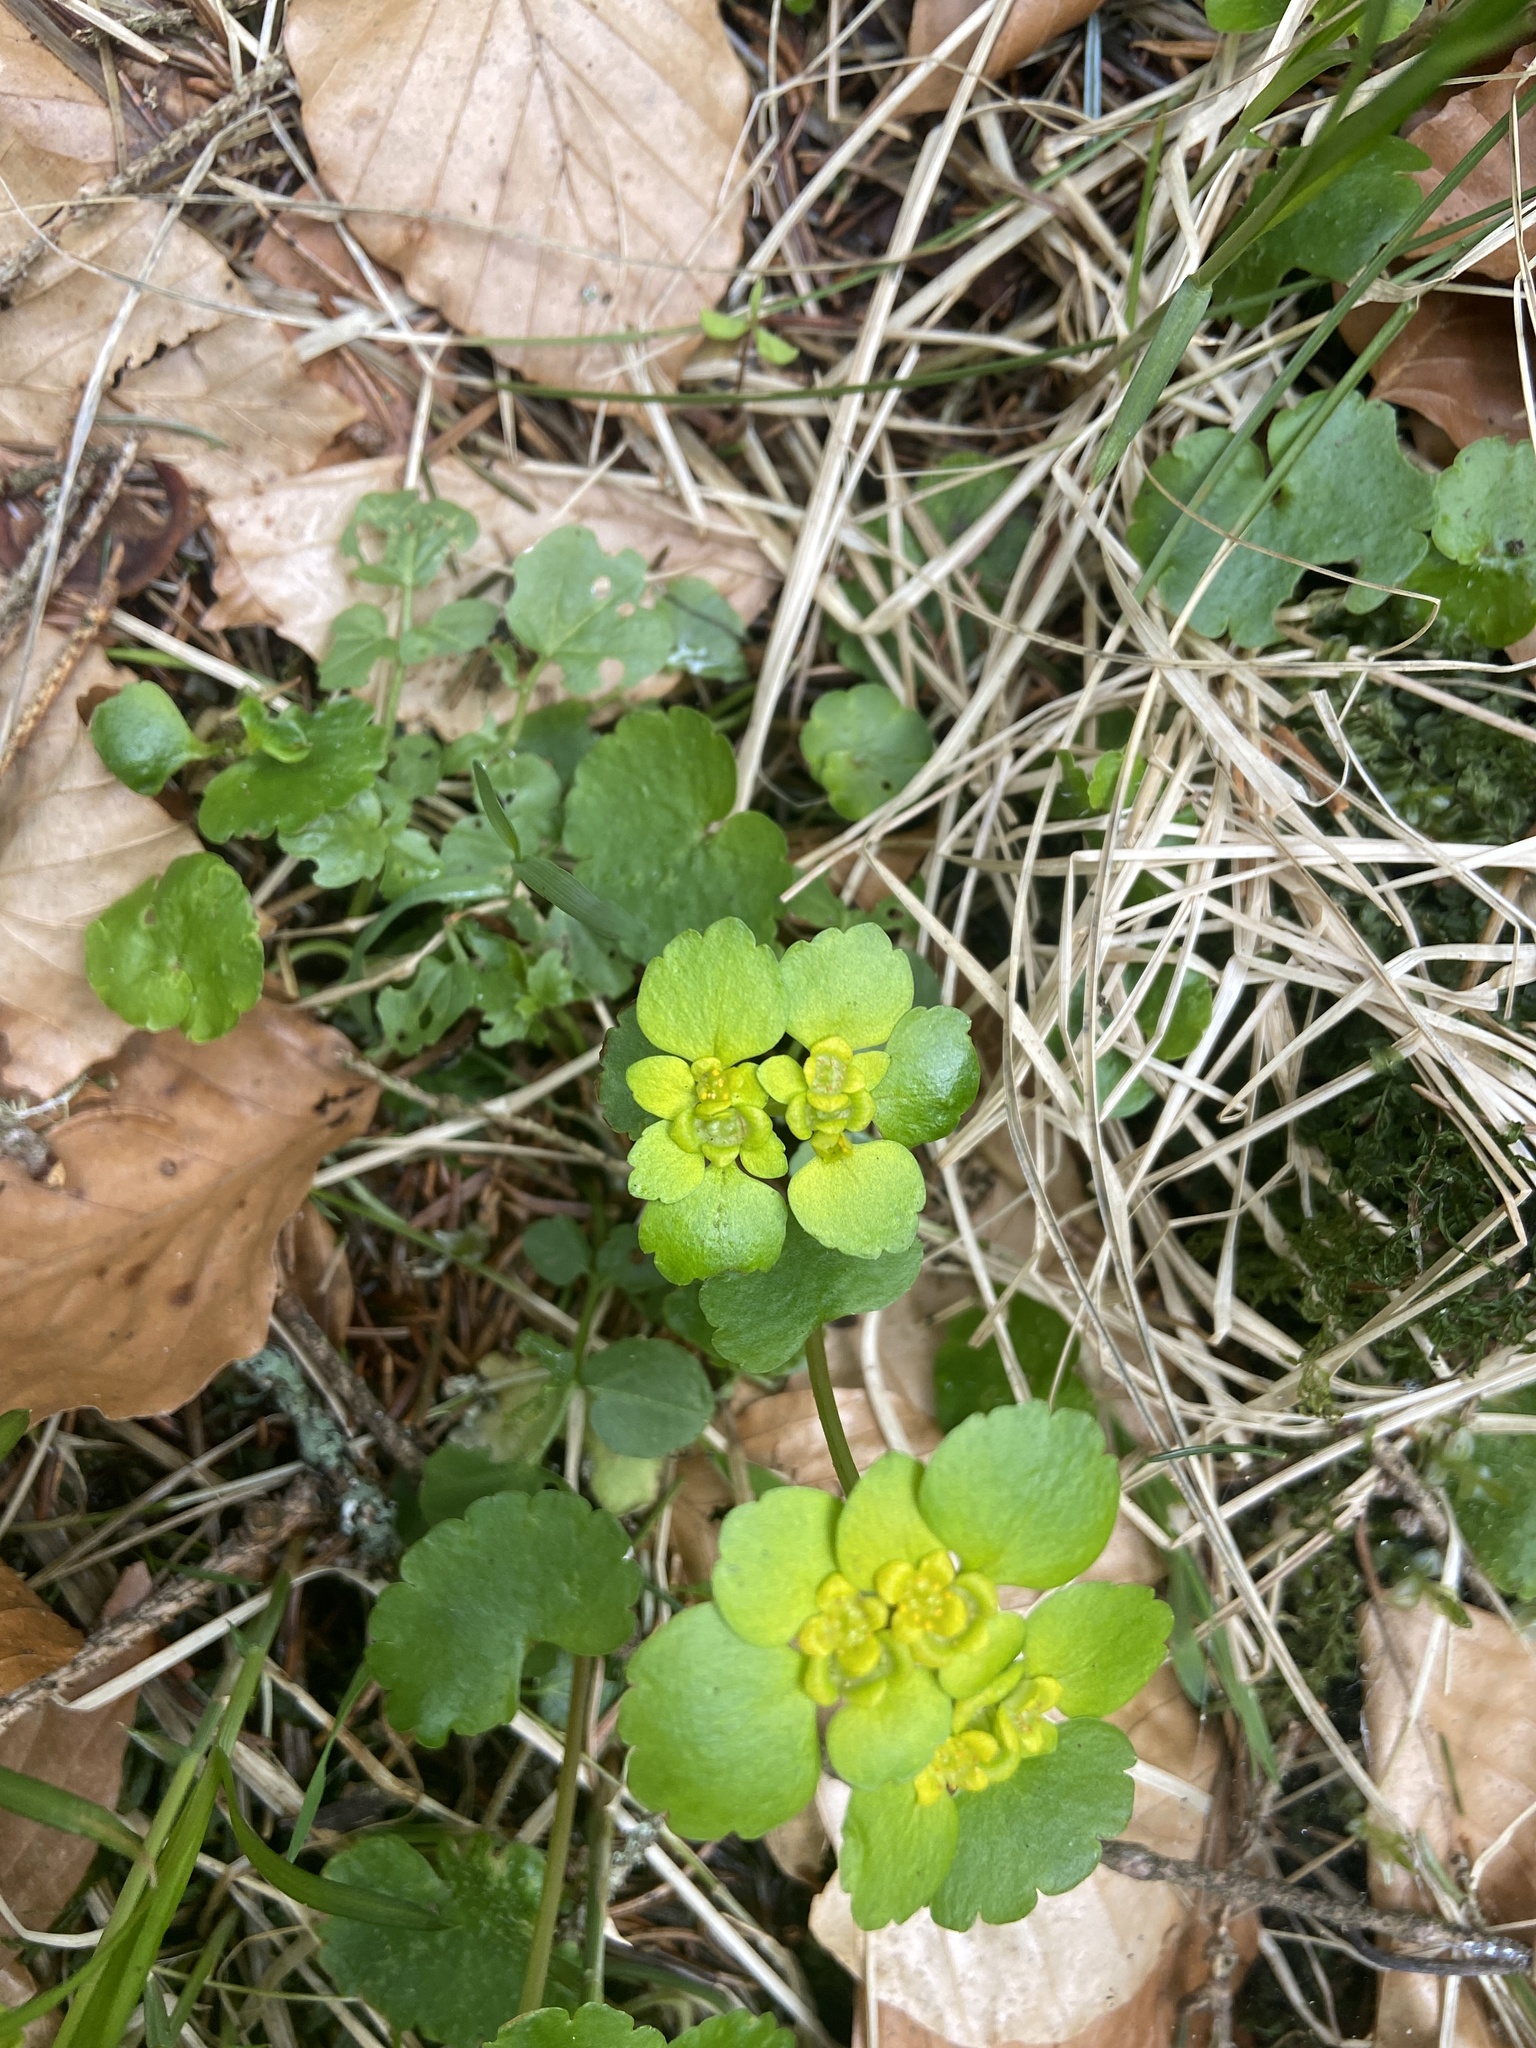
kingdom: Plantae
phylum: Tracheophyta
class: Magnoliopsida
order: Saxifragales
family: Saxifragaceae
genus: Chrysosplenium
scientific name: Chrysosplenium alternifolium
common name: Alternate-leaved golden-saxifrage
